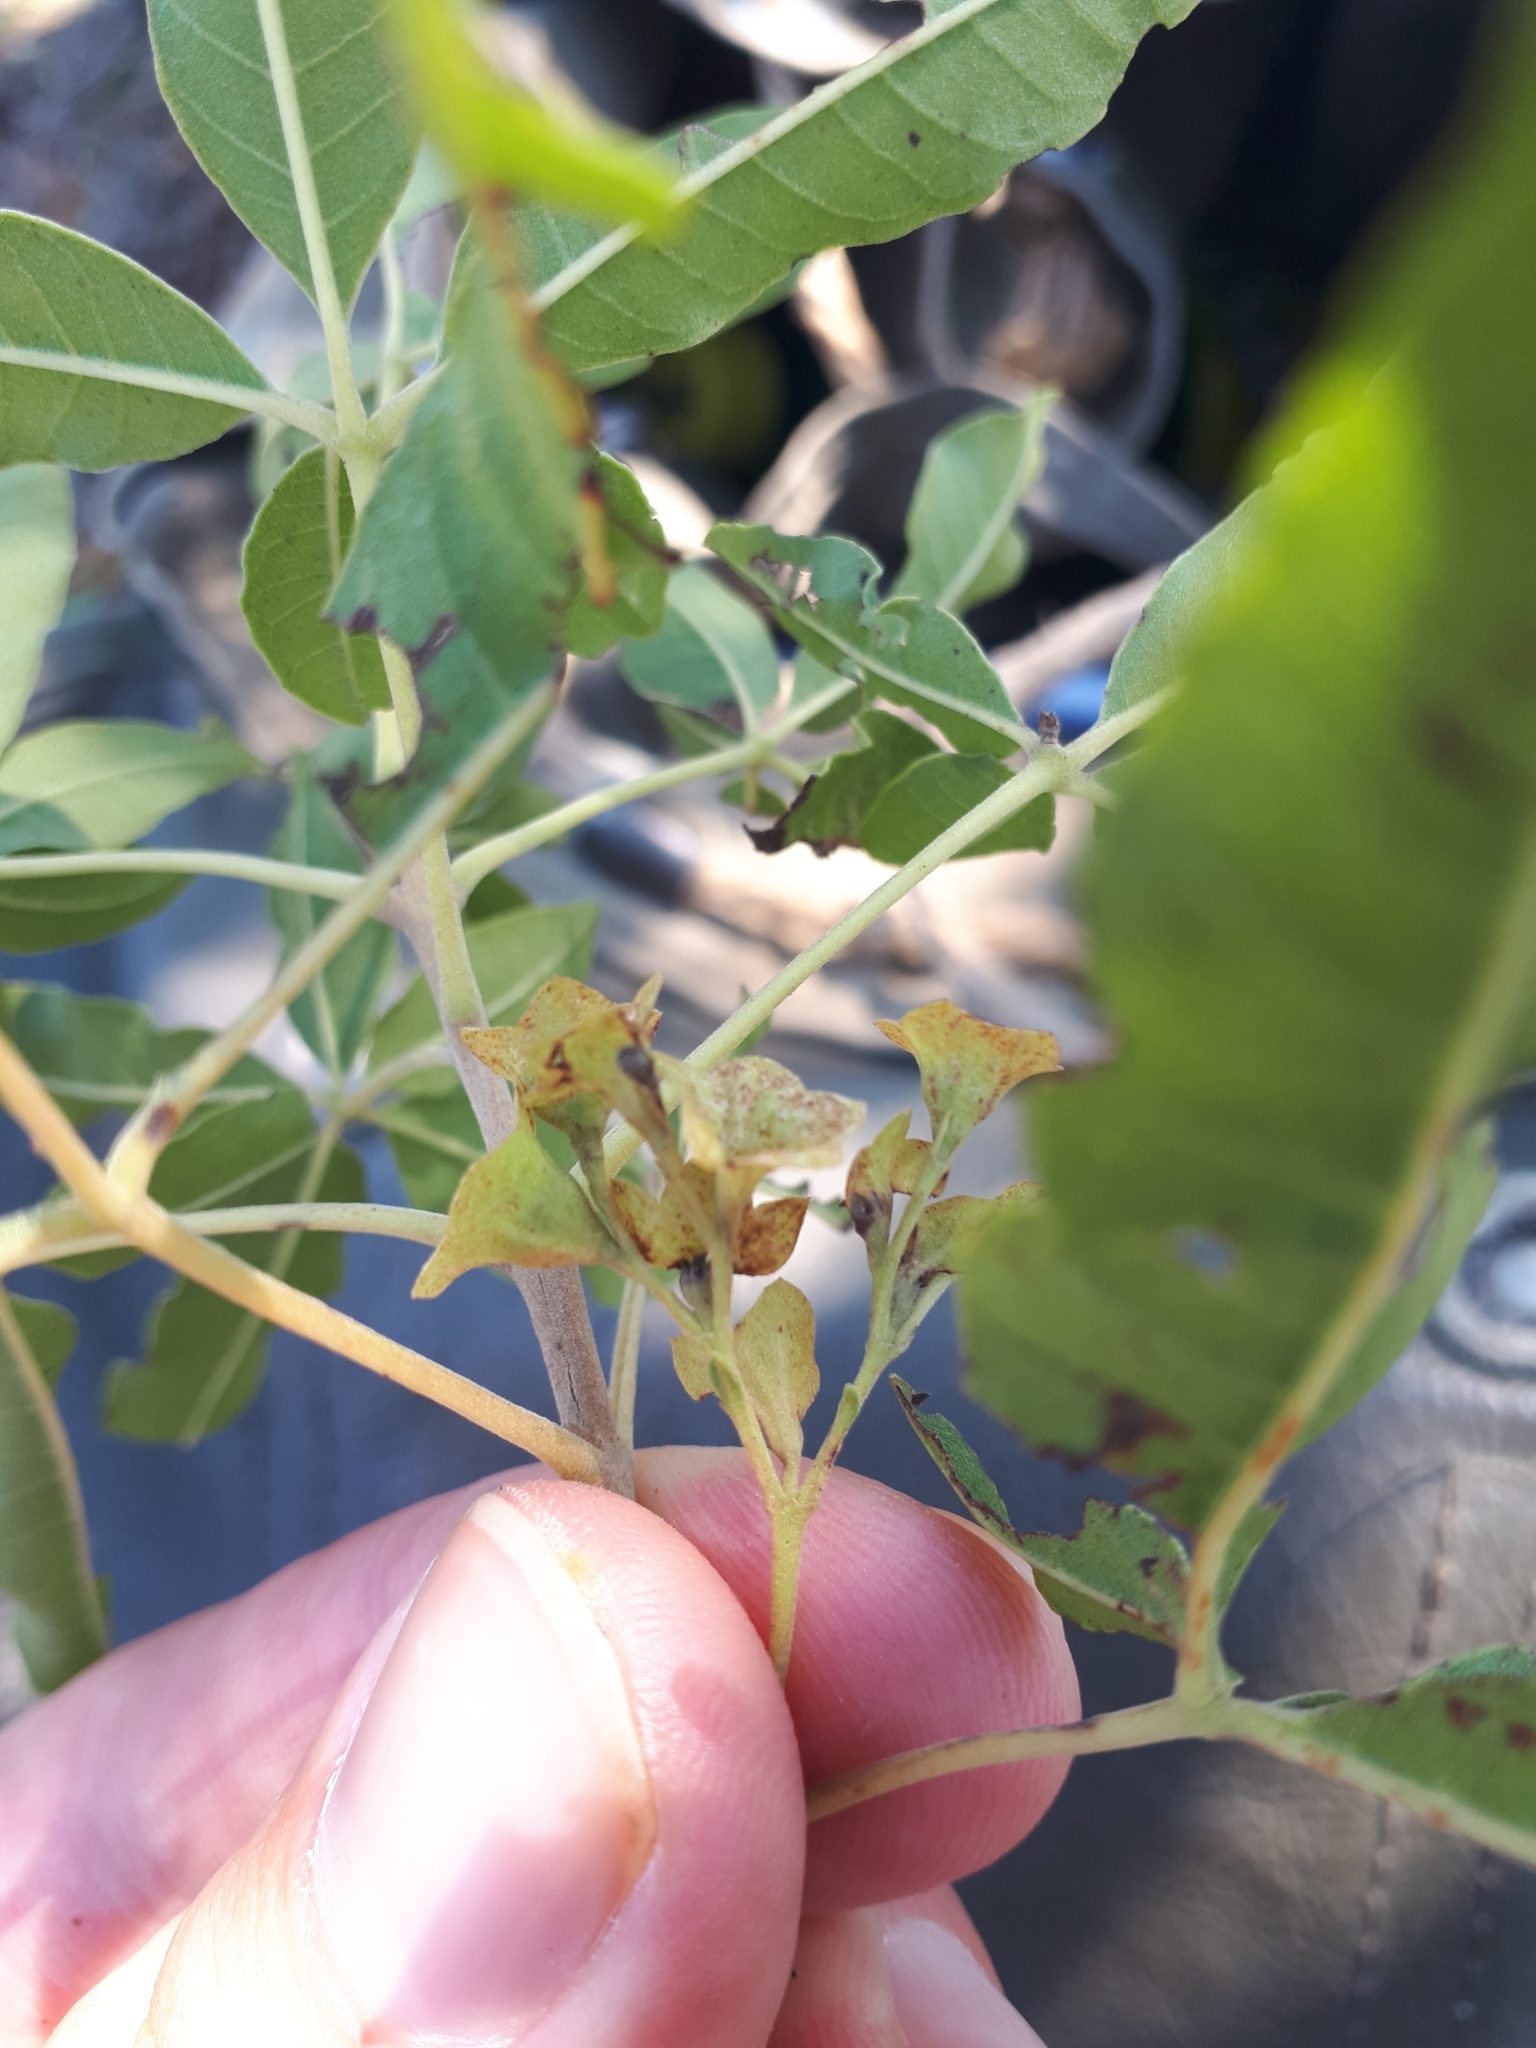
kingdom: Plantae
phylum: Tracheophyta
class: Magnoliopsida
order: Lamiales
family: Lamiaceae
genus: Vitex
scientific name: Vitex rehmannii
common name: Pipe-stem fingerleaf
